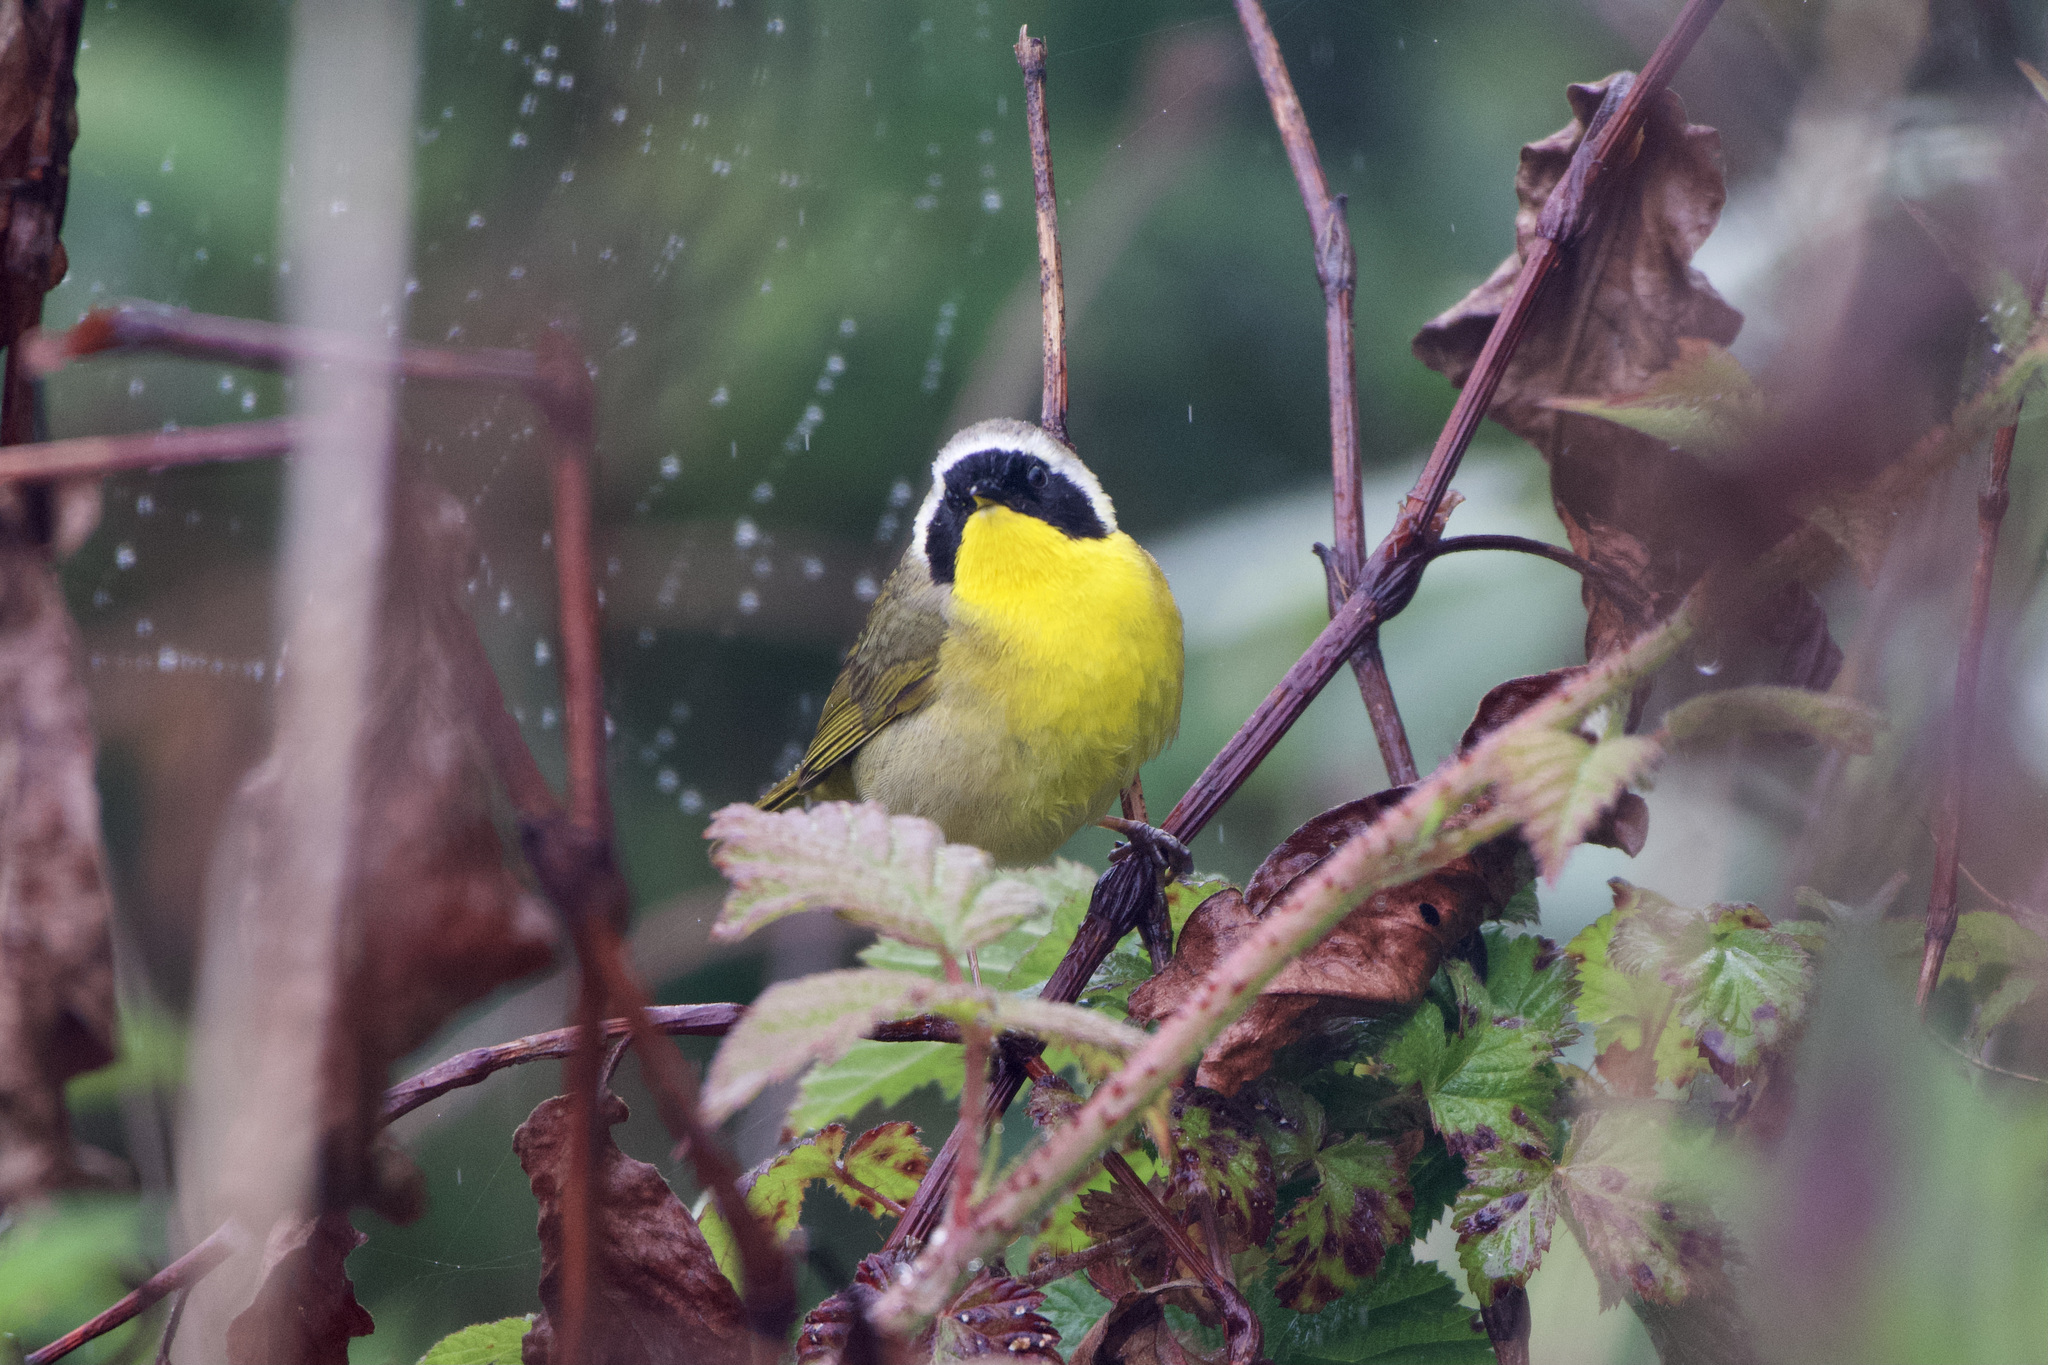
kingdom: Animalia
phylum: Chordata
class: Aves
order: Passeriformes
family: Parulidae
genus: Geothlypis
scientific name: Geothlypis trichas
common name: Common yellowthroat
